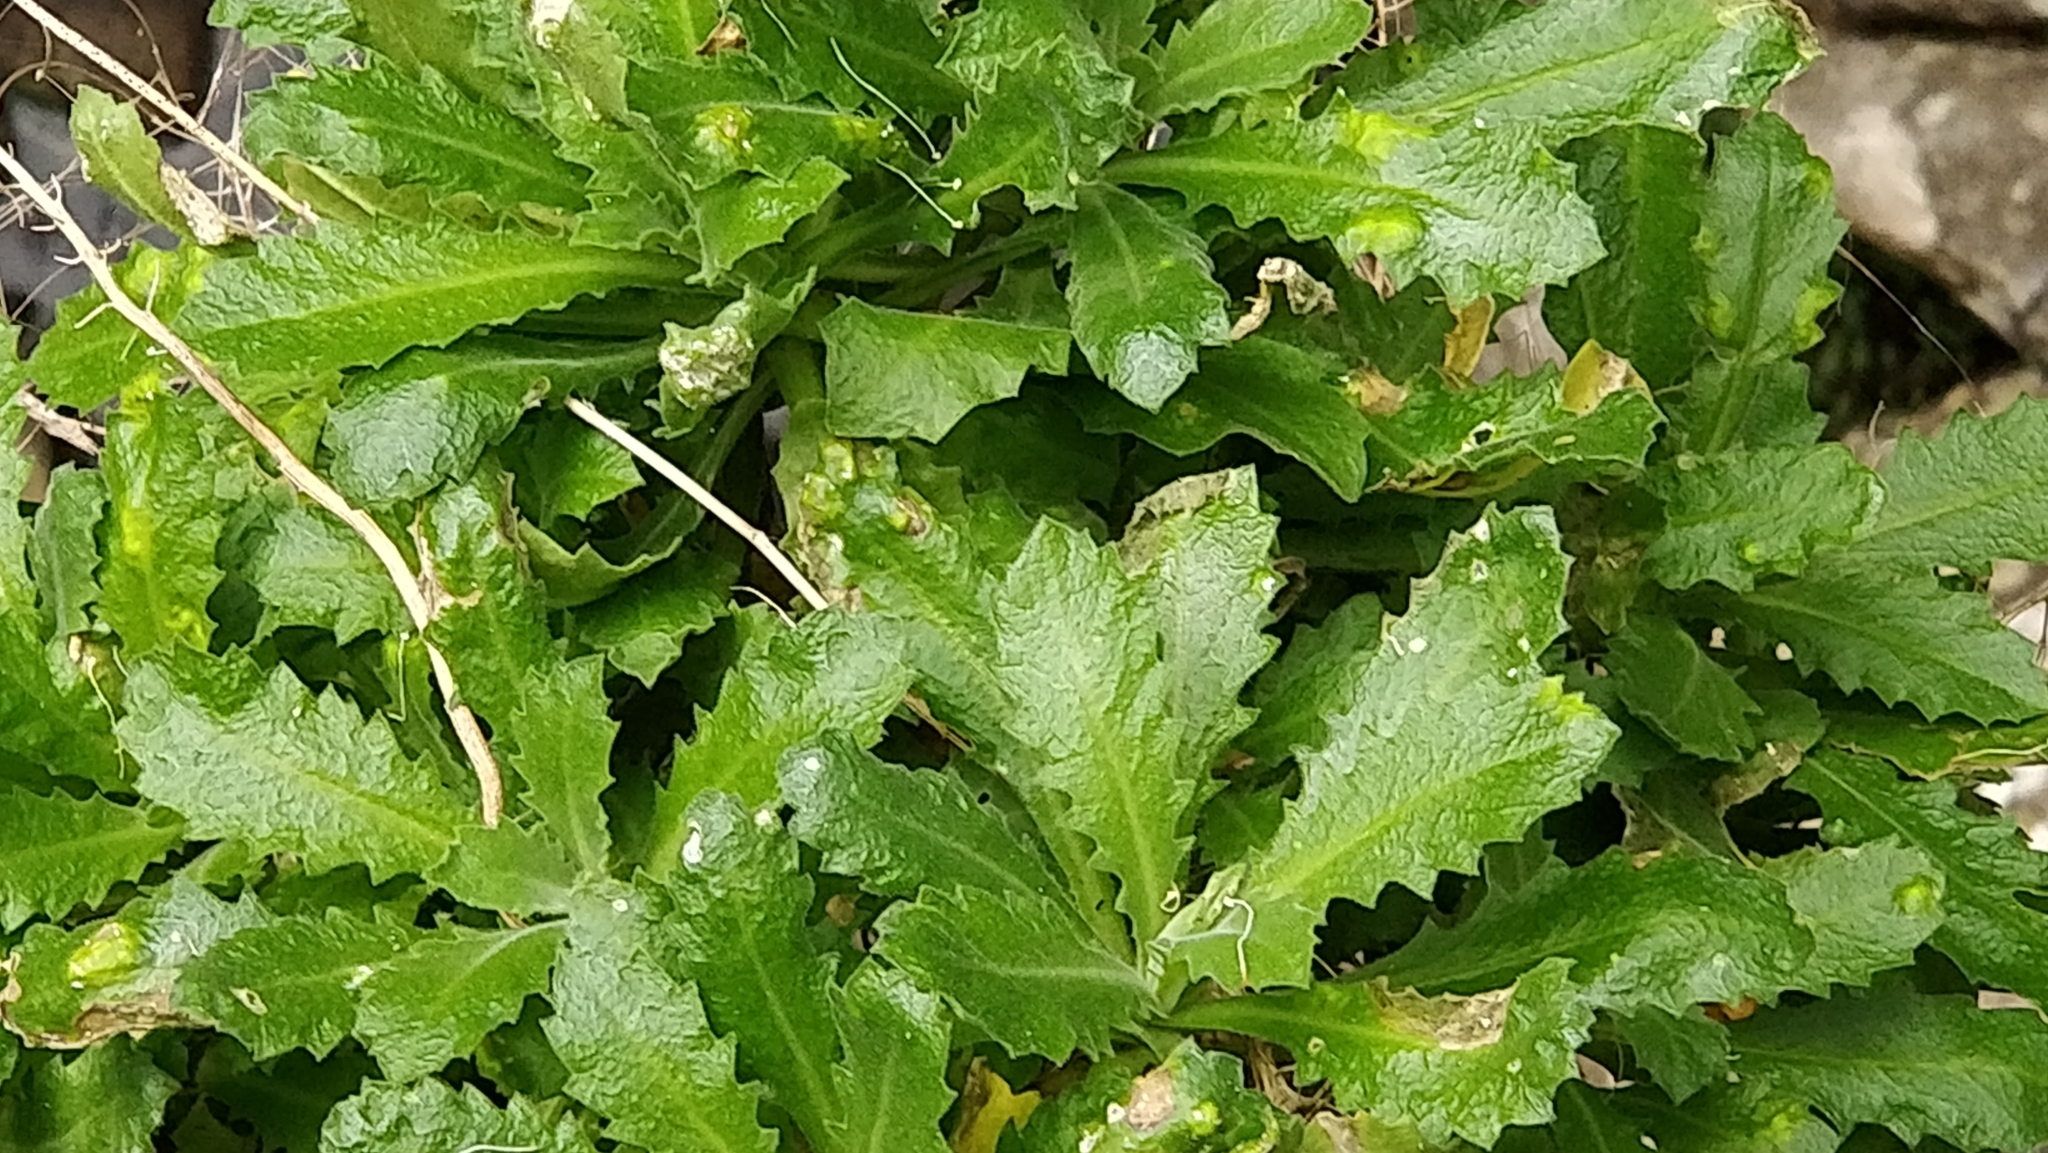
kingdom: Plantae
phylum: Tracheophyta
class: Magnoliopsida
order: Brassicales
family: Brassicaceae
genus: Arabis
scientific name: Arabis alpina
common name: Alpine rock-cress
